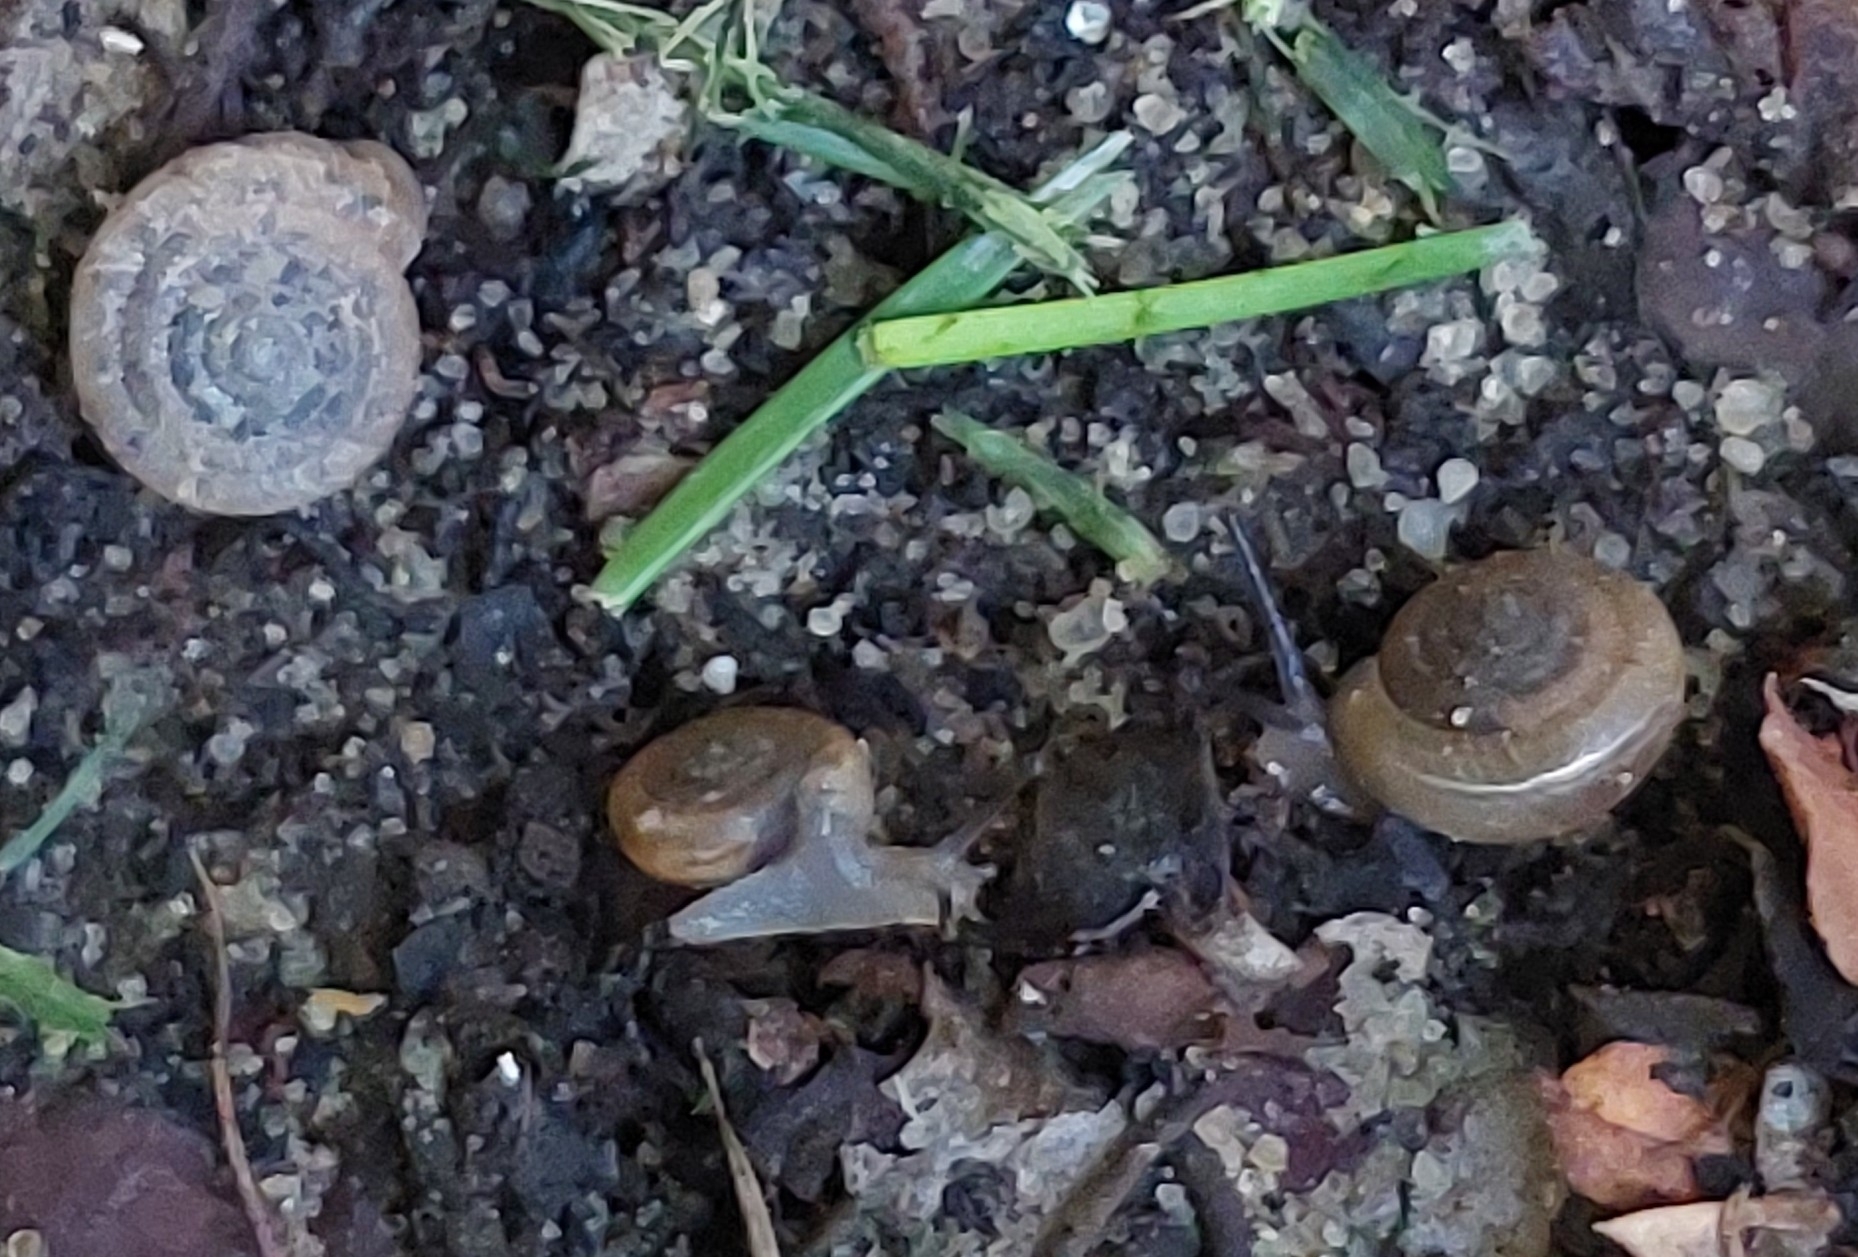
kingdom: Animalia
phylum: Mollusca
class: Gastropoda
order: Stylommatophora
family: Polygyridae
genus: Polygyra
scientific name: Polygyra cereolus
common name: Southern flatcone snail
